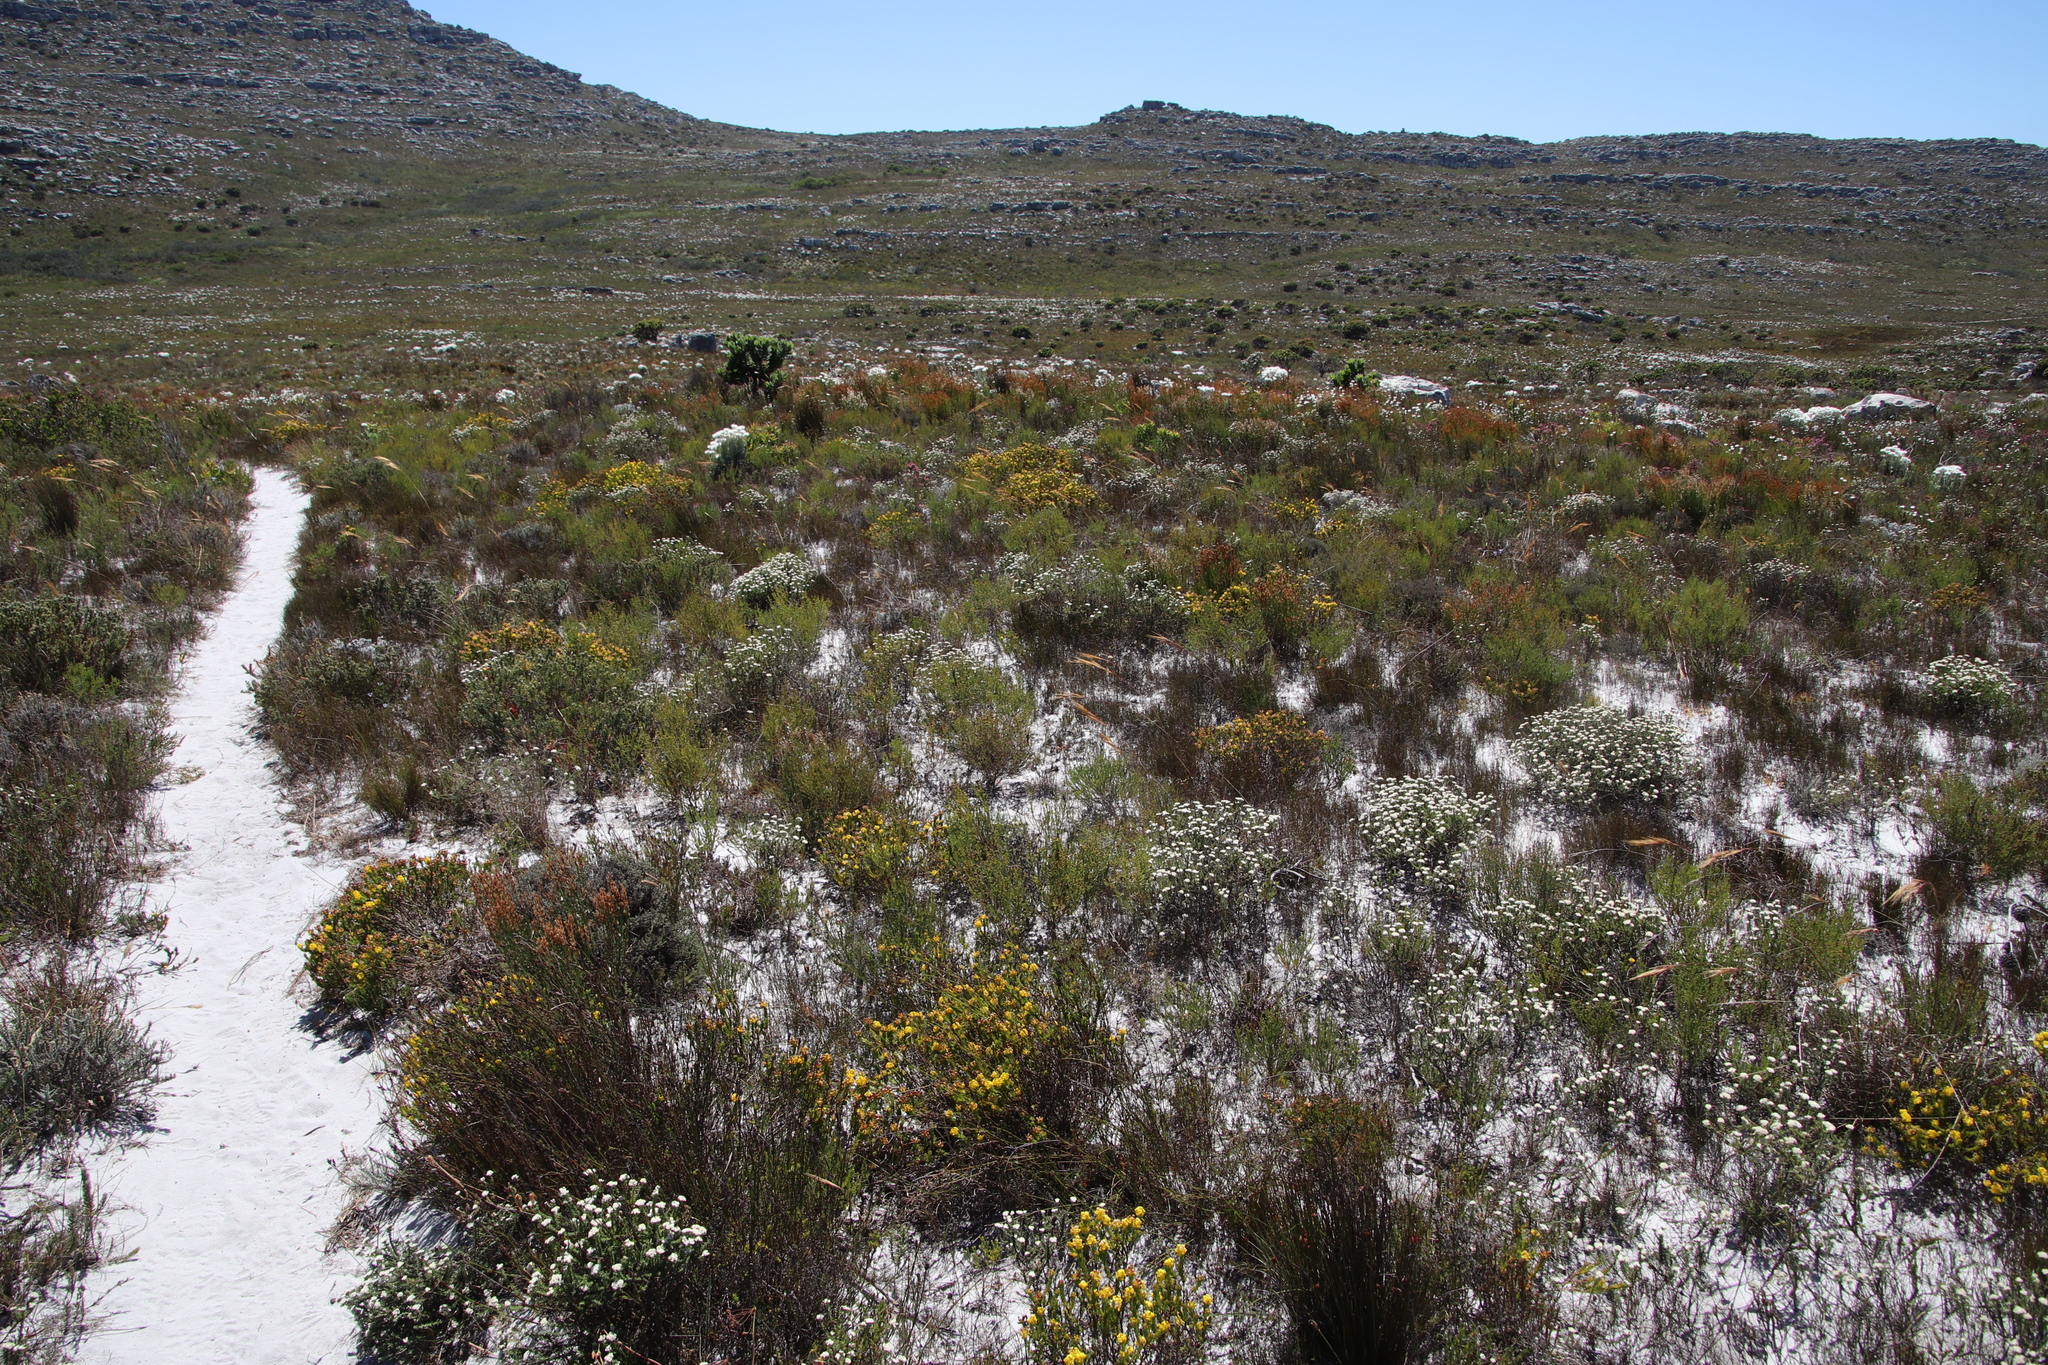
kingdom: Plantae
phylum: Tracheophyta
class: Magnoliopsida
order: Fabales
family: Fabaceae
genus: Aspalathus
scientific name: Aspalathus callosa
